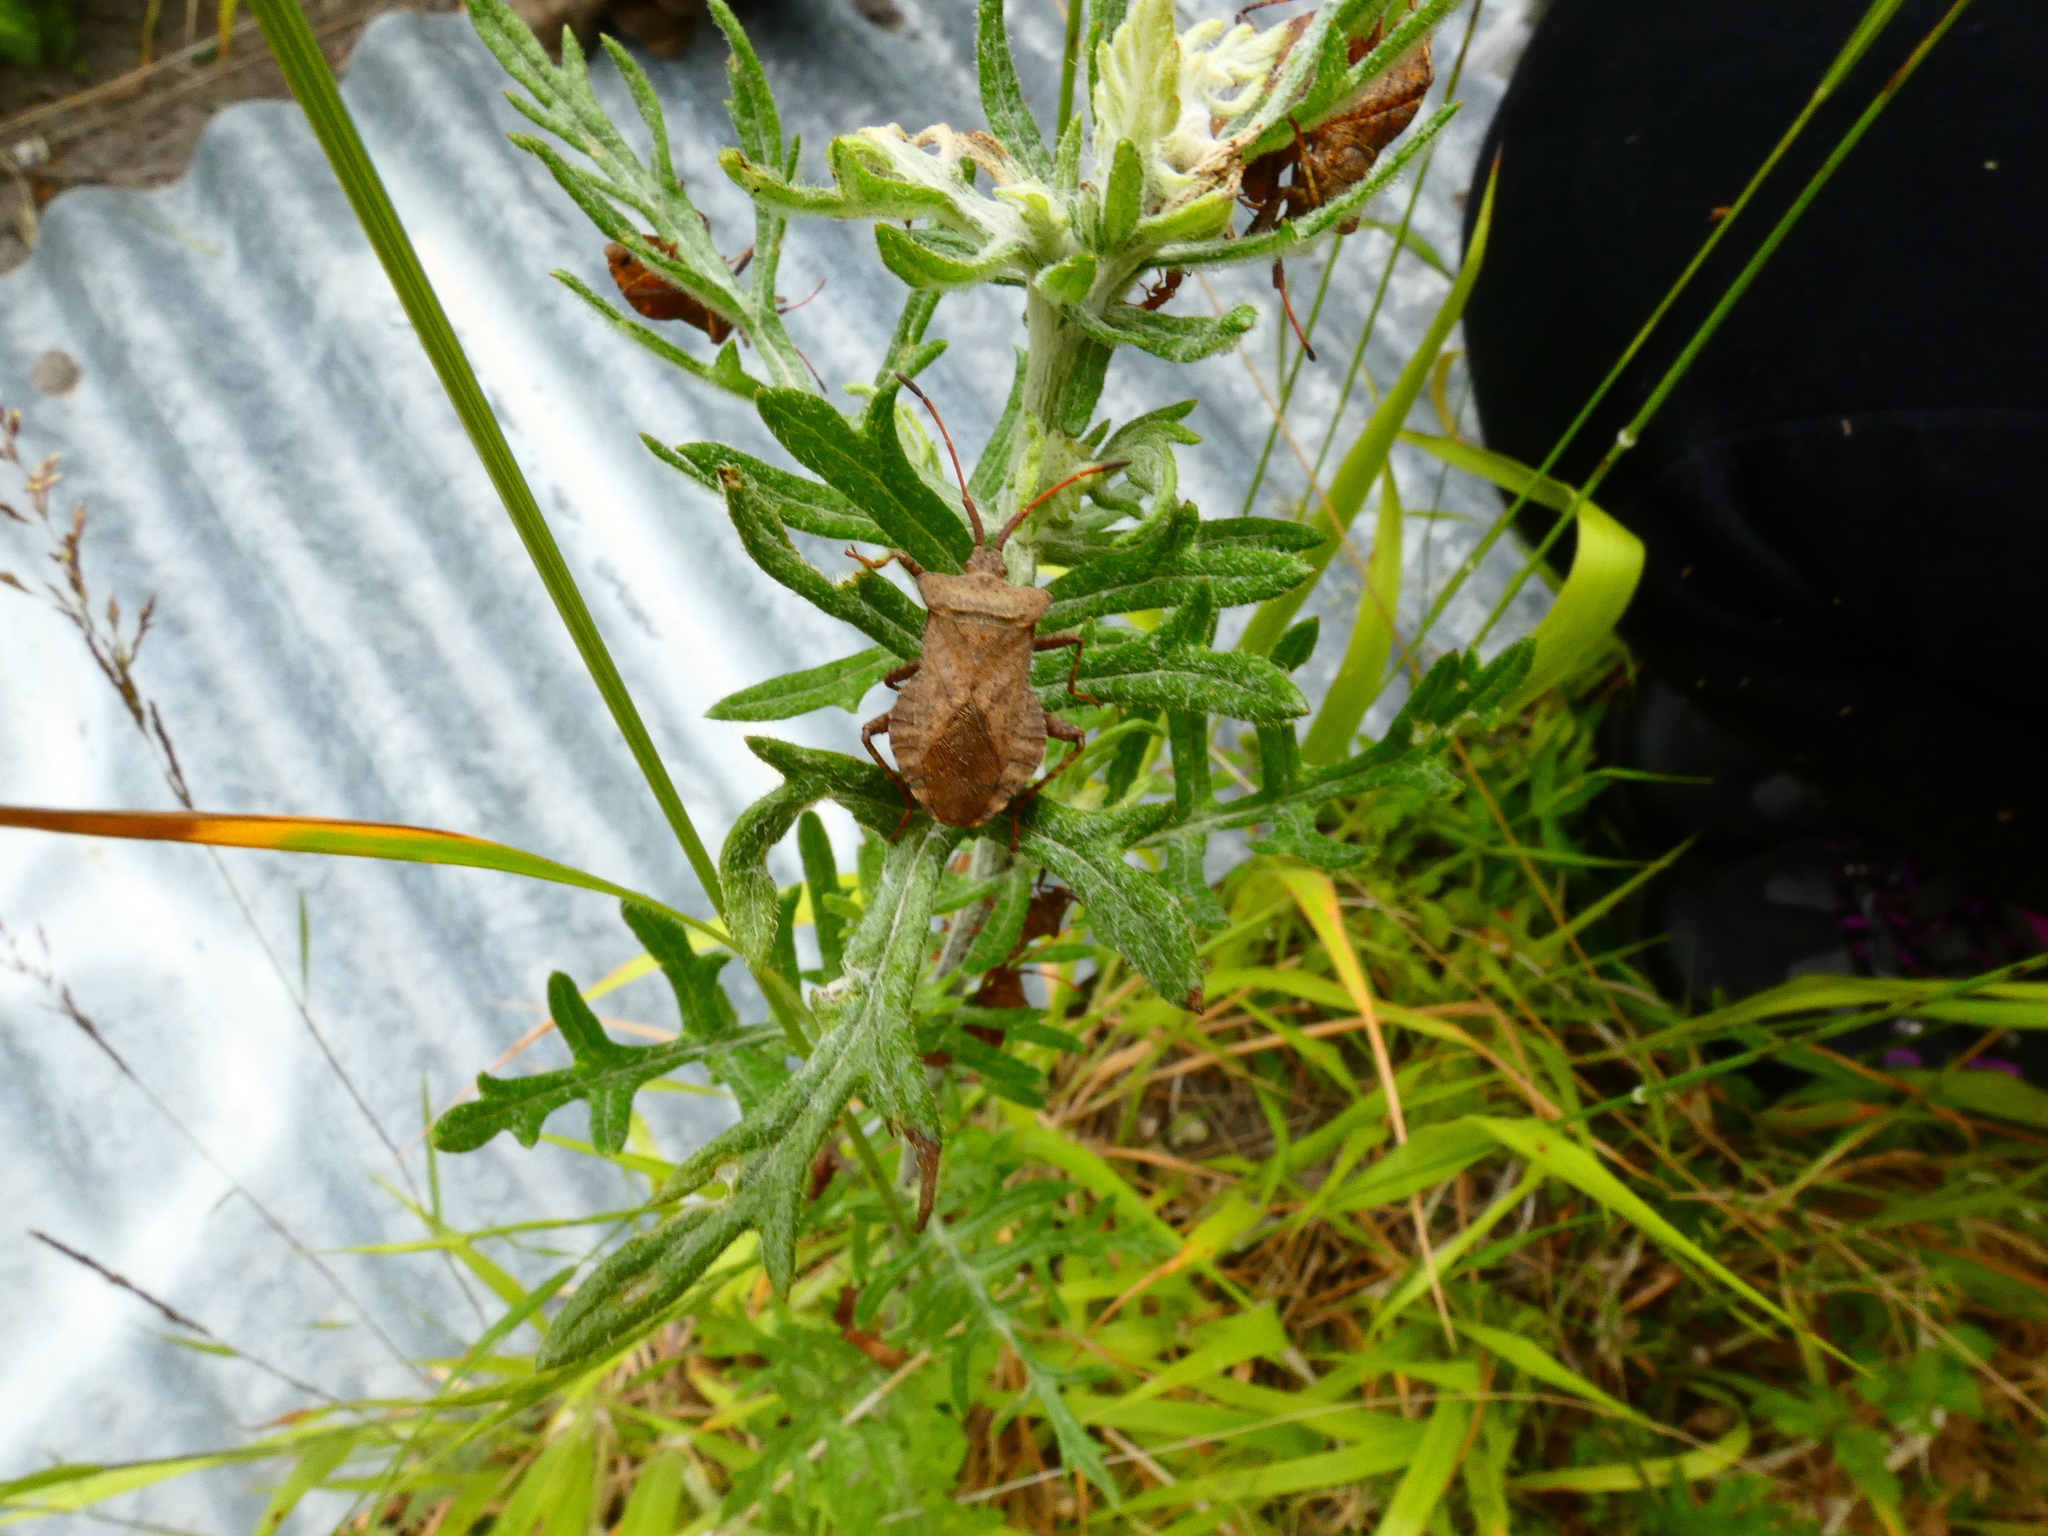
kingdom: Animalia
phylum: Arthropoda
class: Insecta
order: Hemiptera
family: Coreidae
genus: Coreus
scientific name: Coreus marginatus
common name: Dock bug
